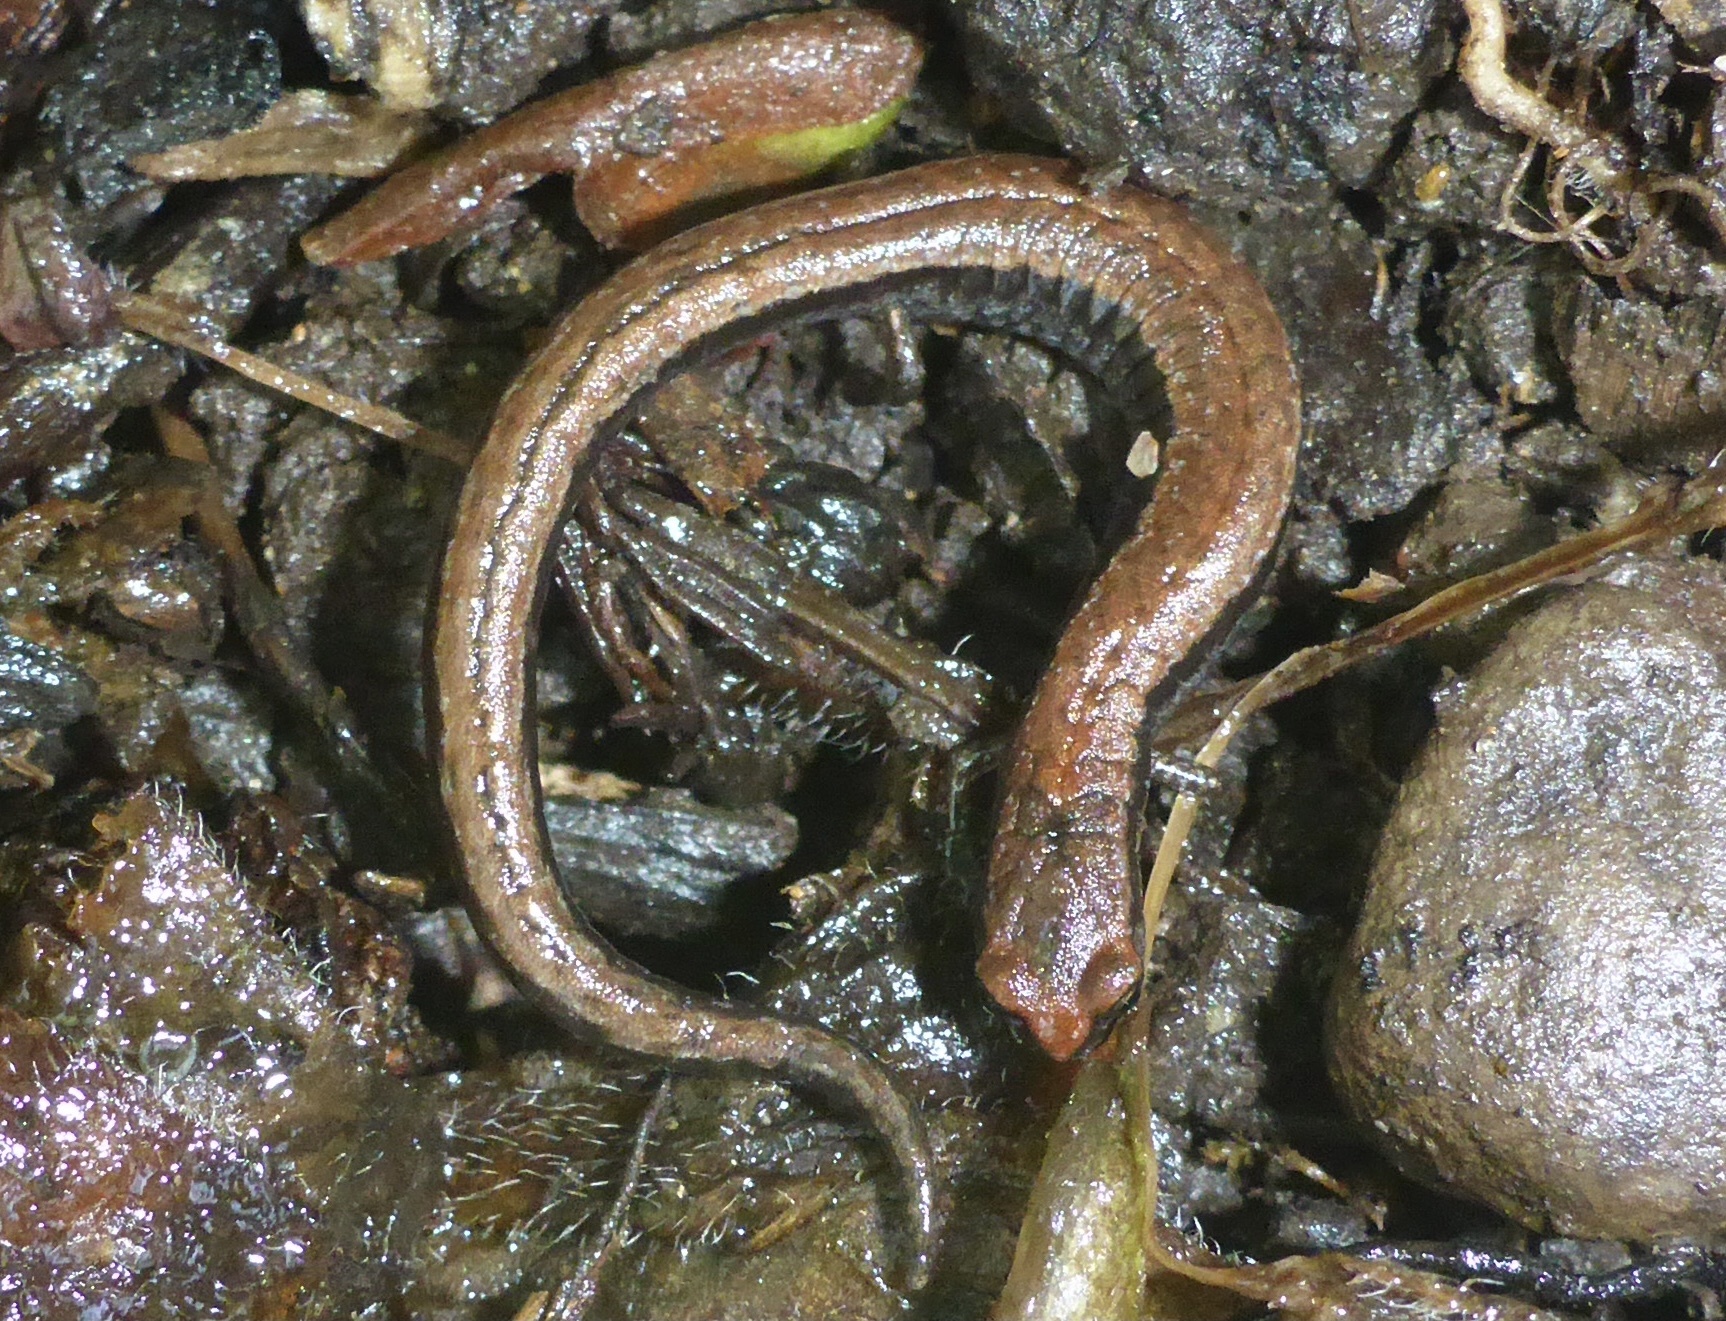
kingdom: Animalia
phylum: Chordata
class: Amphibia
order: Caudata
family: Plethodontidae
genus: Batrachoseps
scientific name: Batrachoseps attenuatus
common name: California slender salamander
